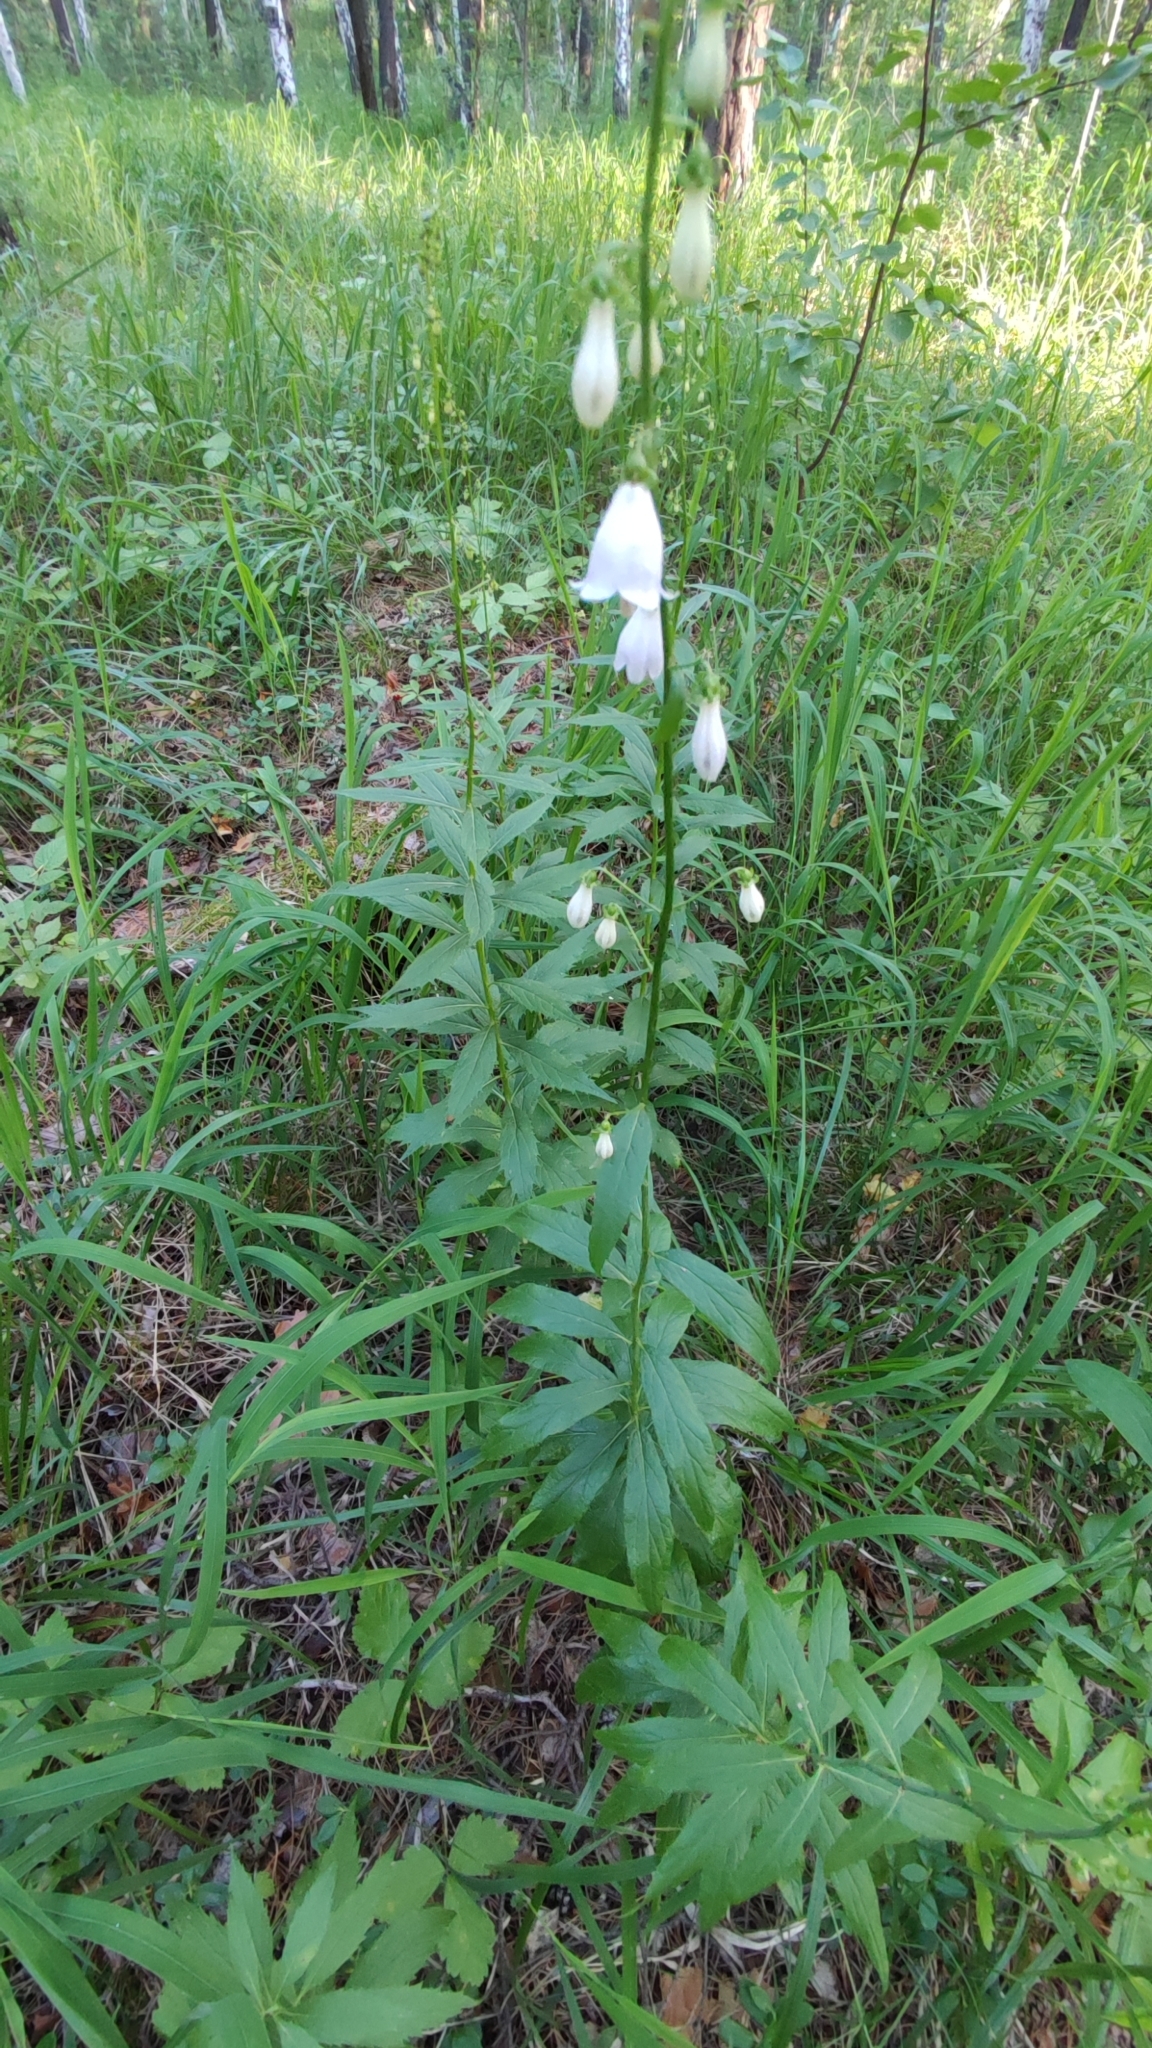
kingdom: Plantae
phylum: Tracheophyta
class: Magnoliopsida
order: Asterales
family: Campanulaceae
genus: Adenophora
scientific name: Adenophora liliifolia
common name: Lilyleaf ladybells
